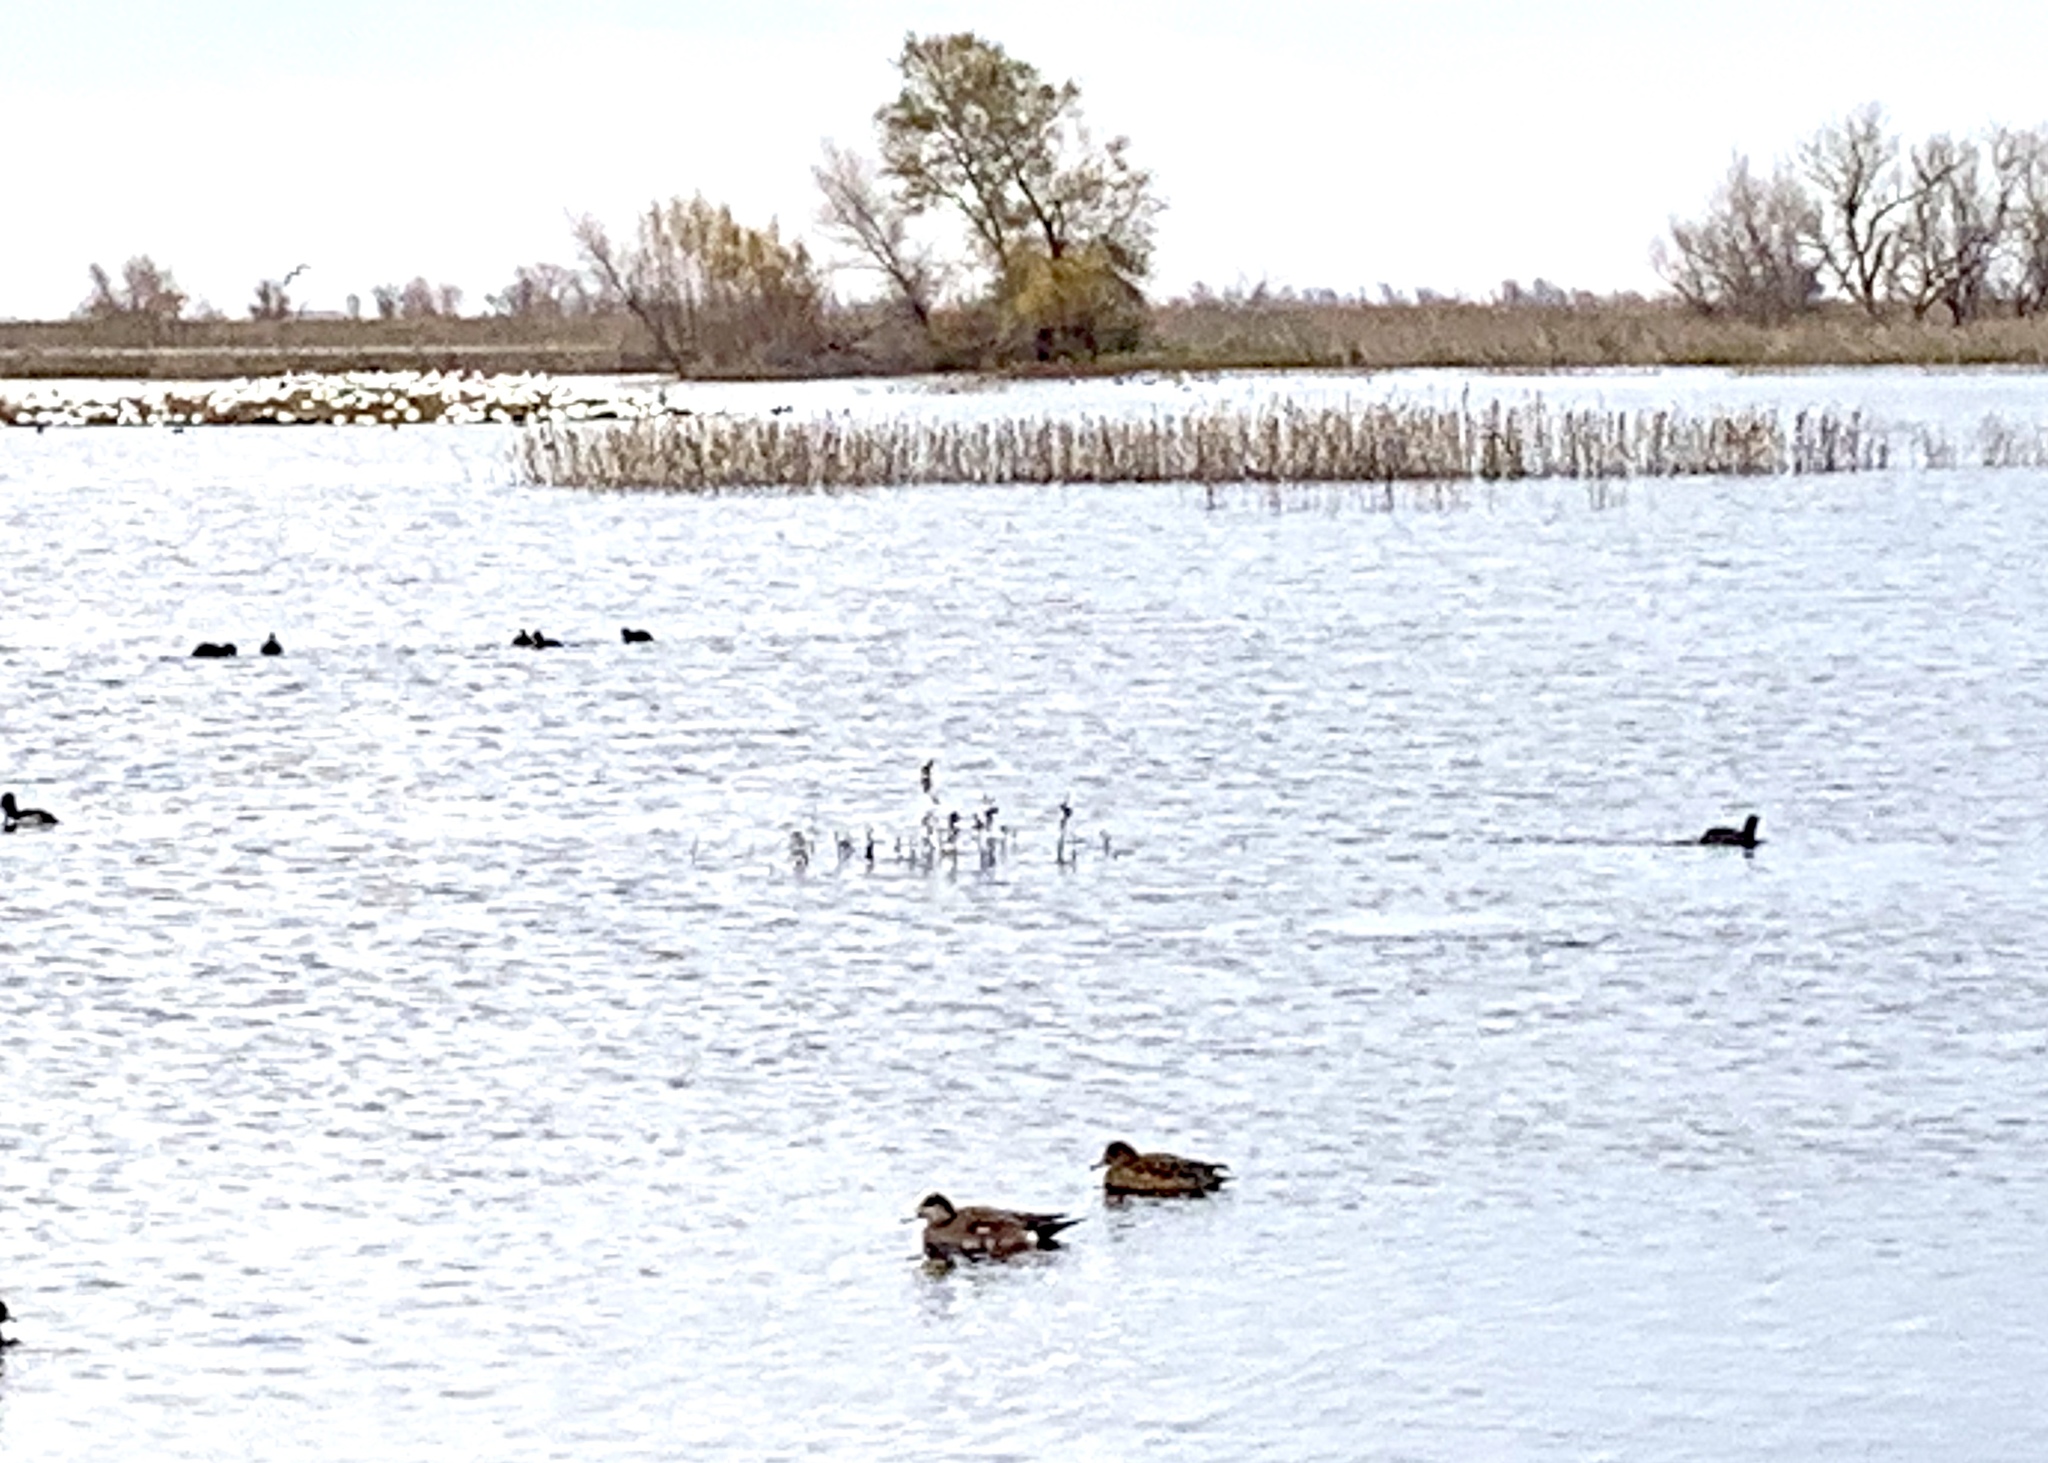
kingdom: Animalia
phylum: Chordata
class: Aves
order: Anseriformes
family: Anatidae
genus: Mareca
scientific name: Mareca americana
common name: American wigeon
